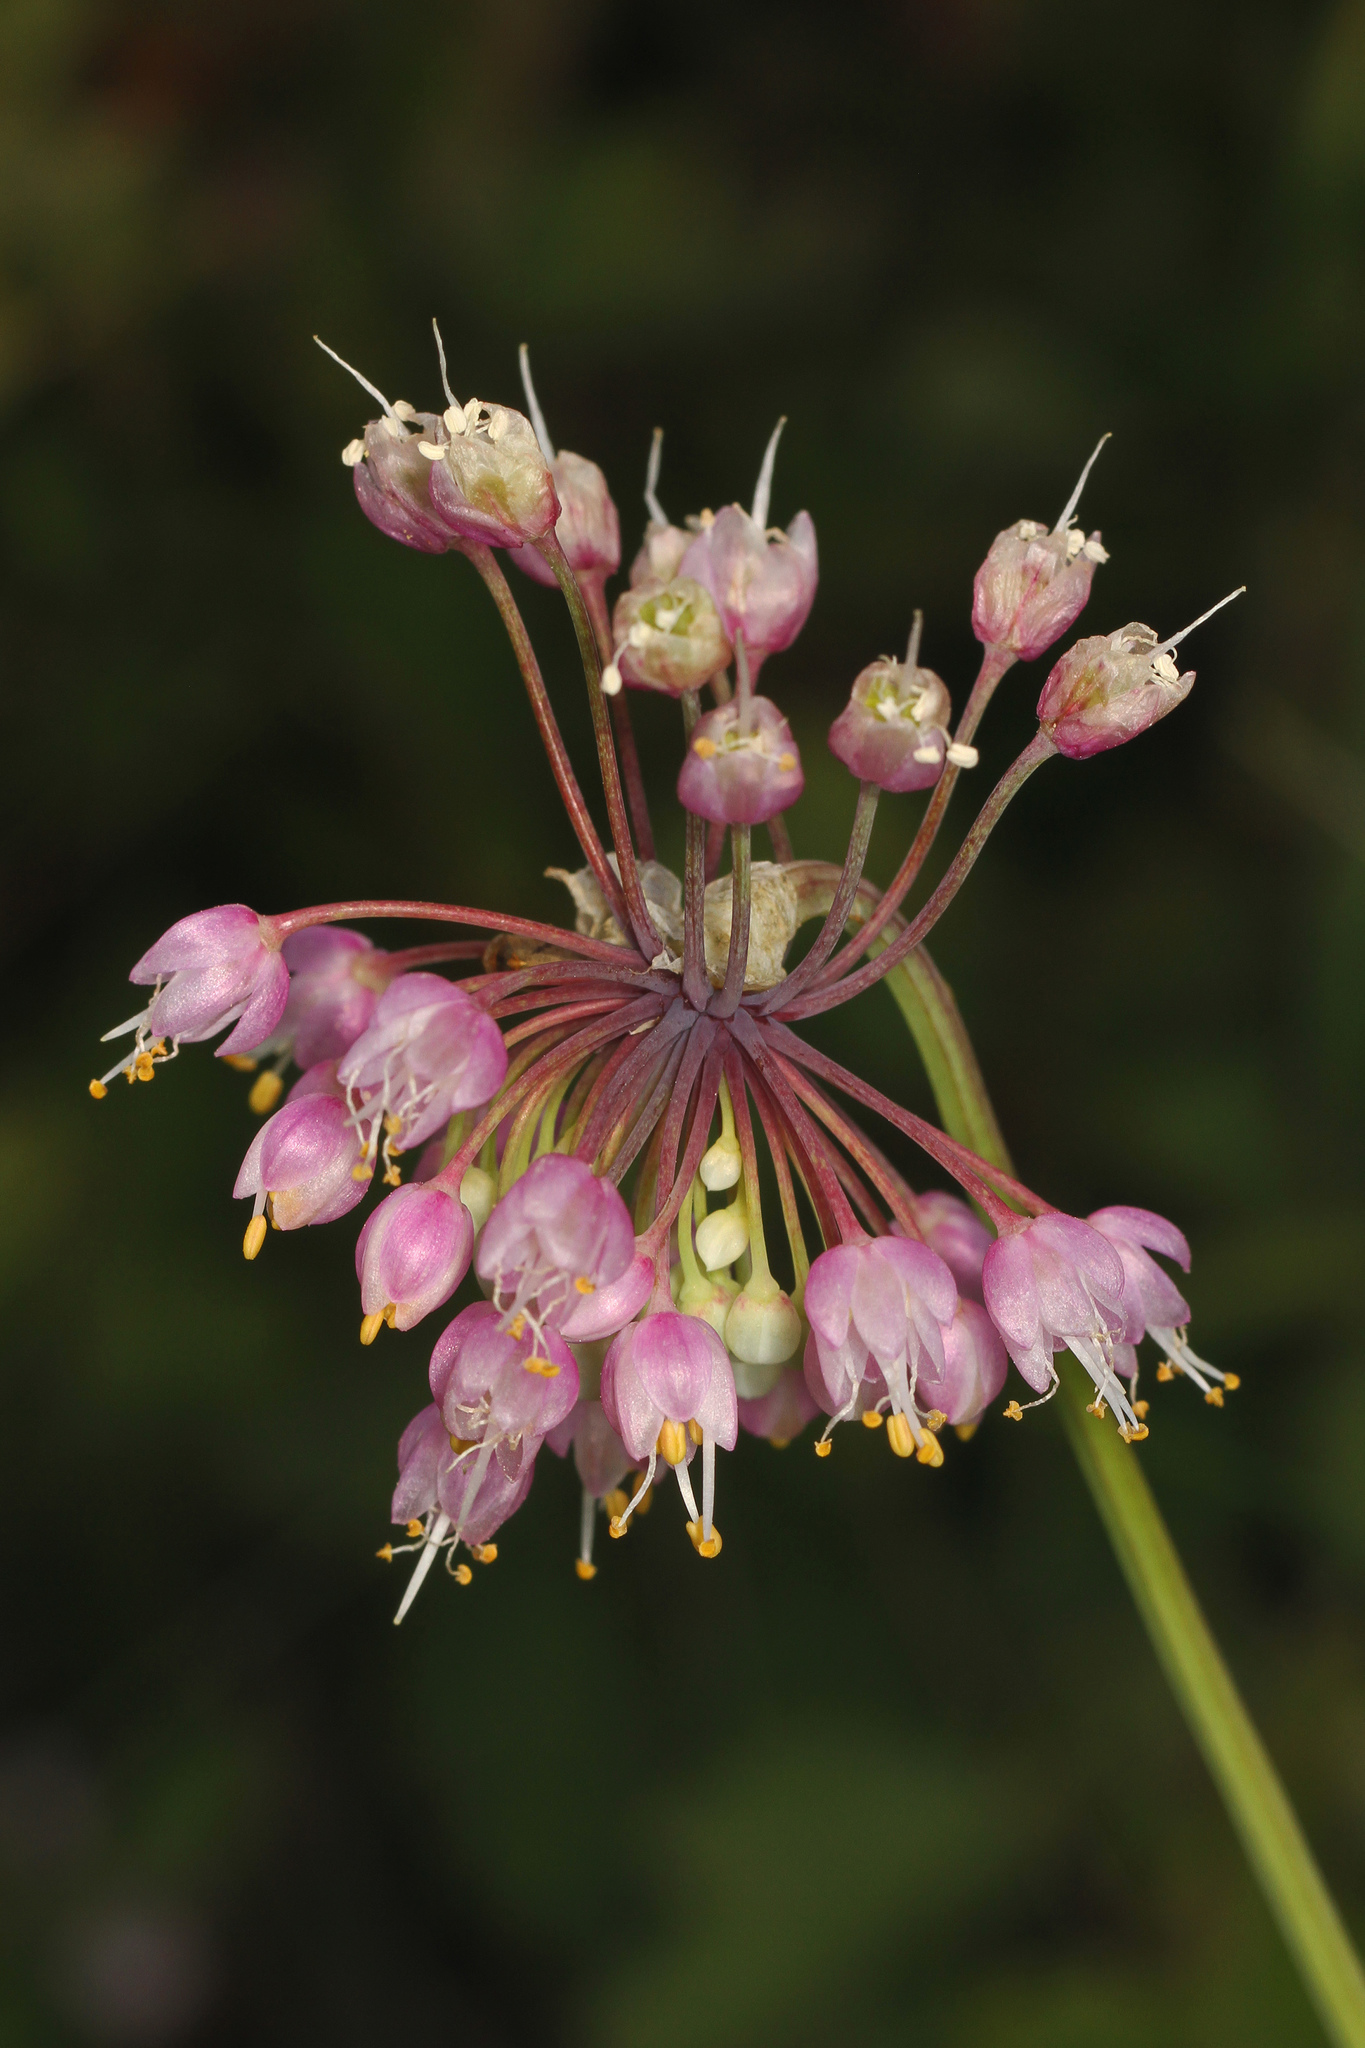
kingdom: Plantae
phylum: Tracheophyta
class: Liliopsida
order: Asparagales
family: Amaryllidaceae
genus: Allium
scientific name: Allium cernuum
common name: Nodding onion
